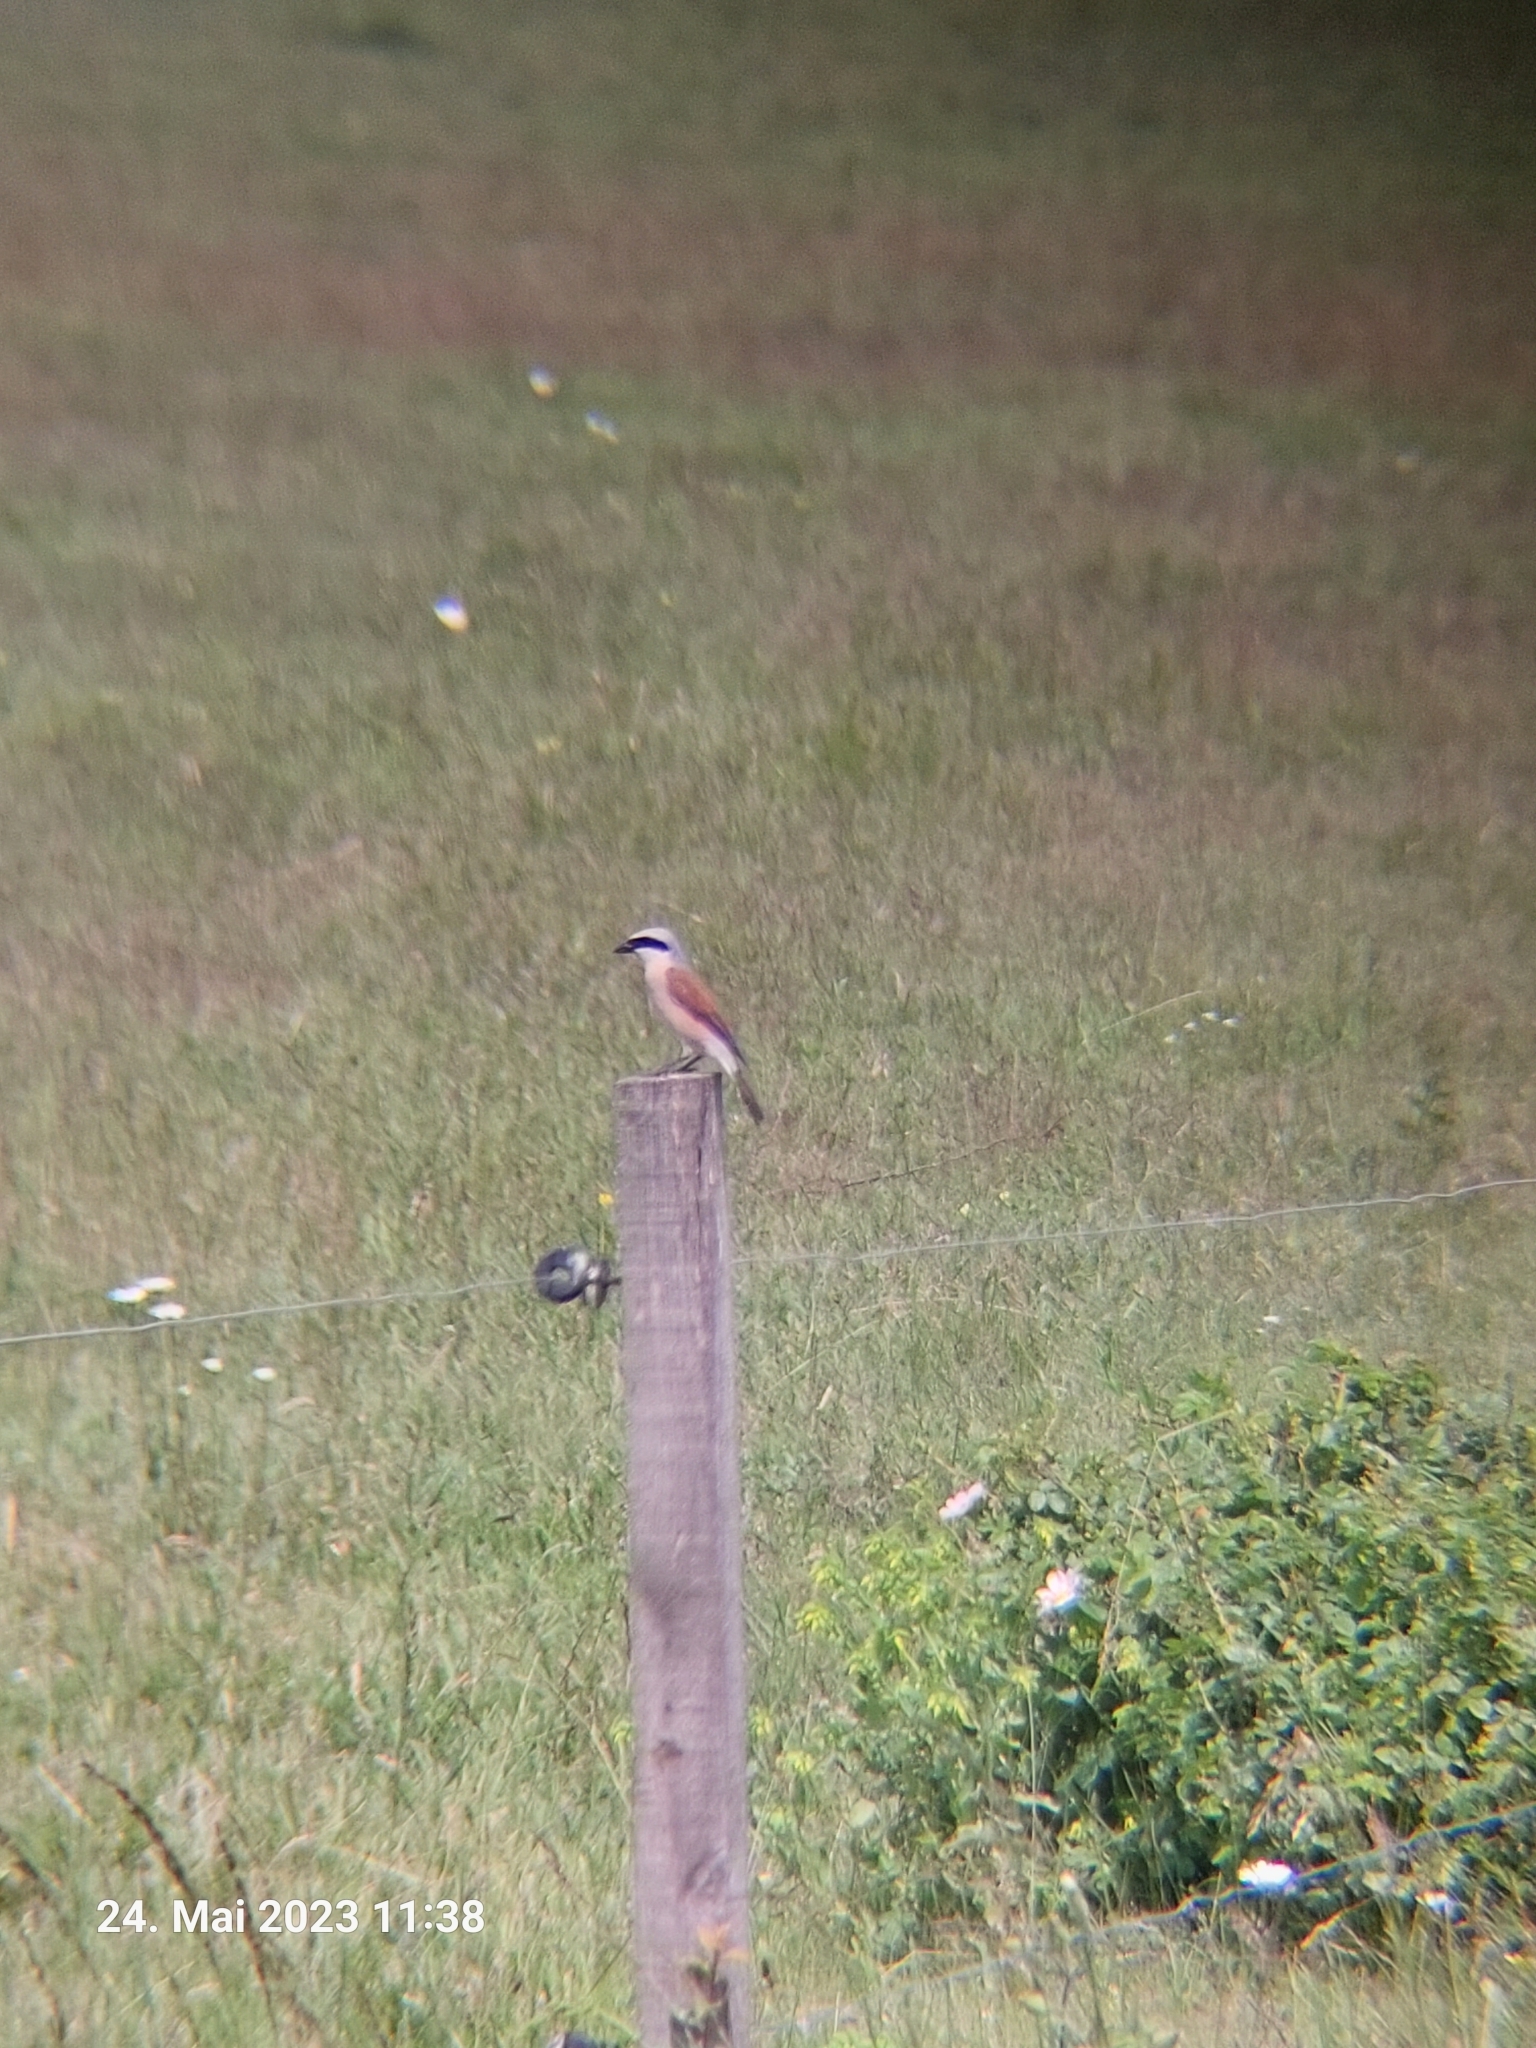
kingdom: Animalia
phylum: Chordata
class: Aves
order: Passeriformes
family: Laniidae
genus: Lanius
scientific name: Lanius collurio
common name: Red-backed shrike
